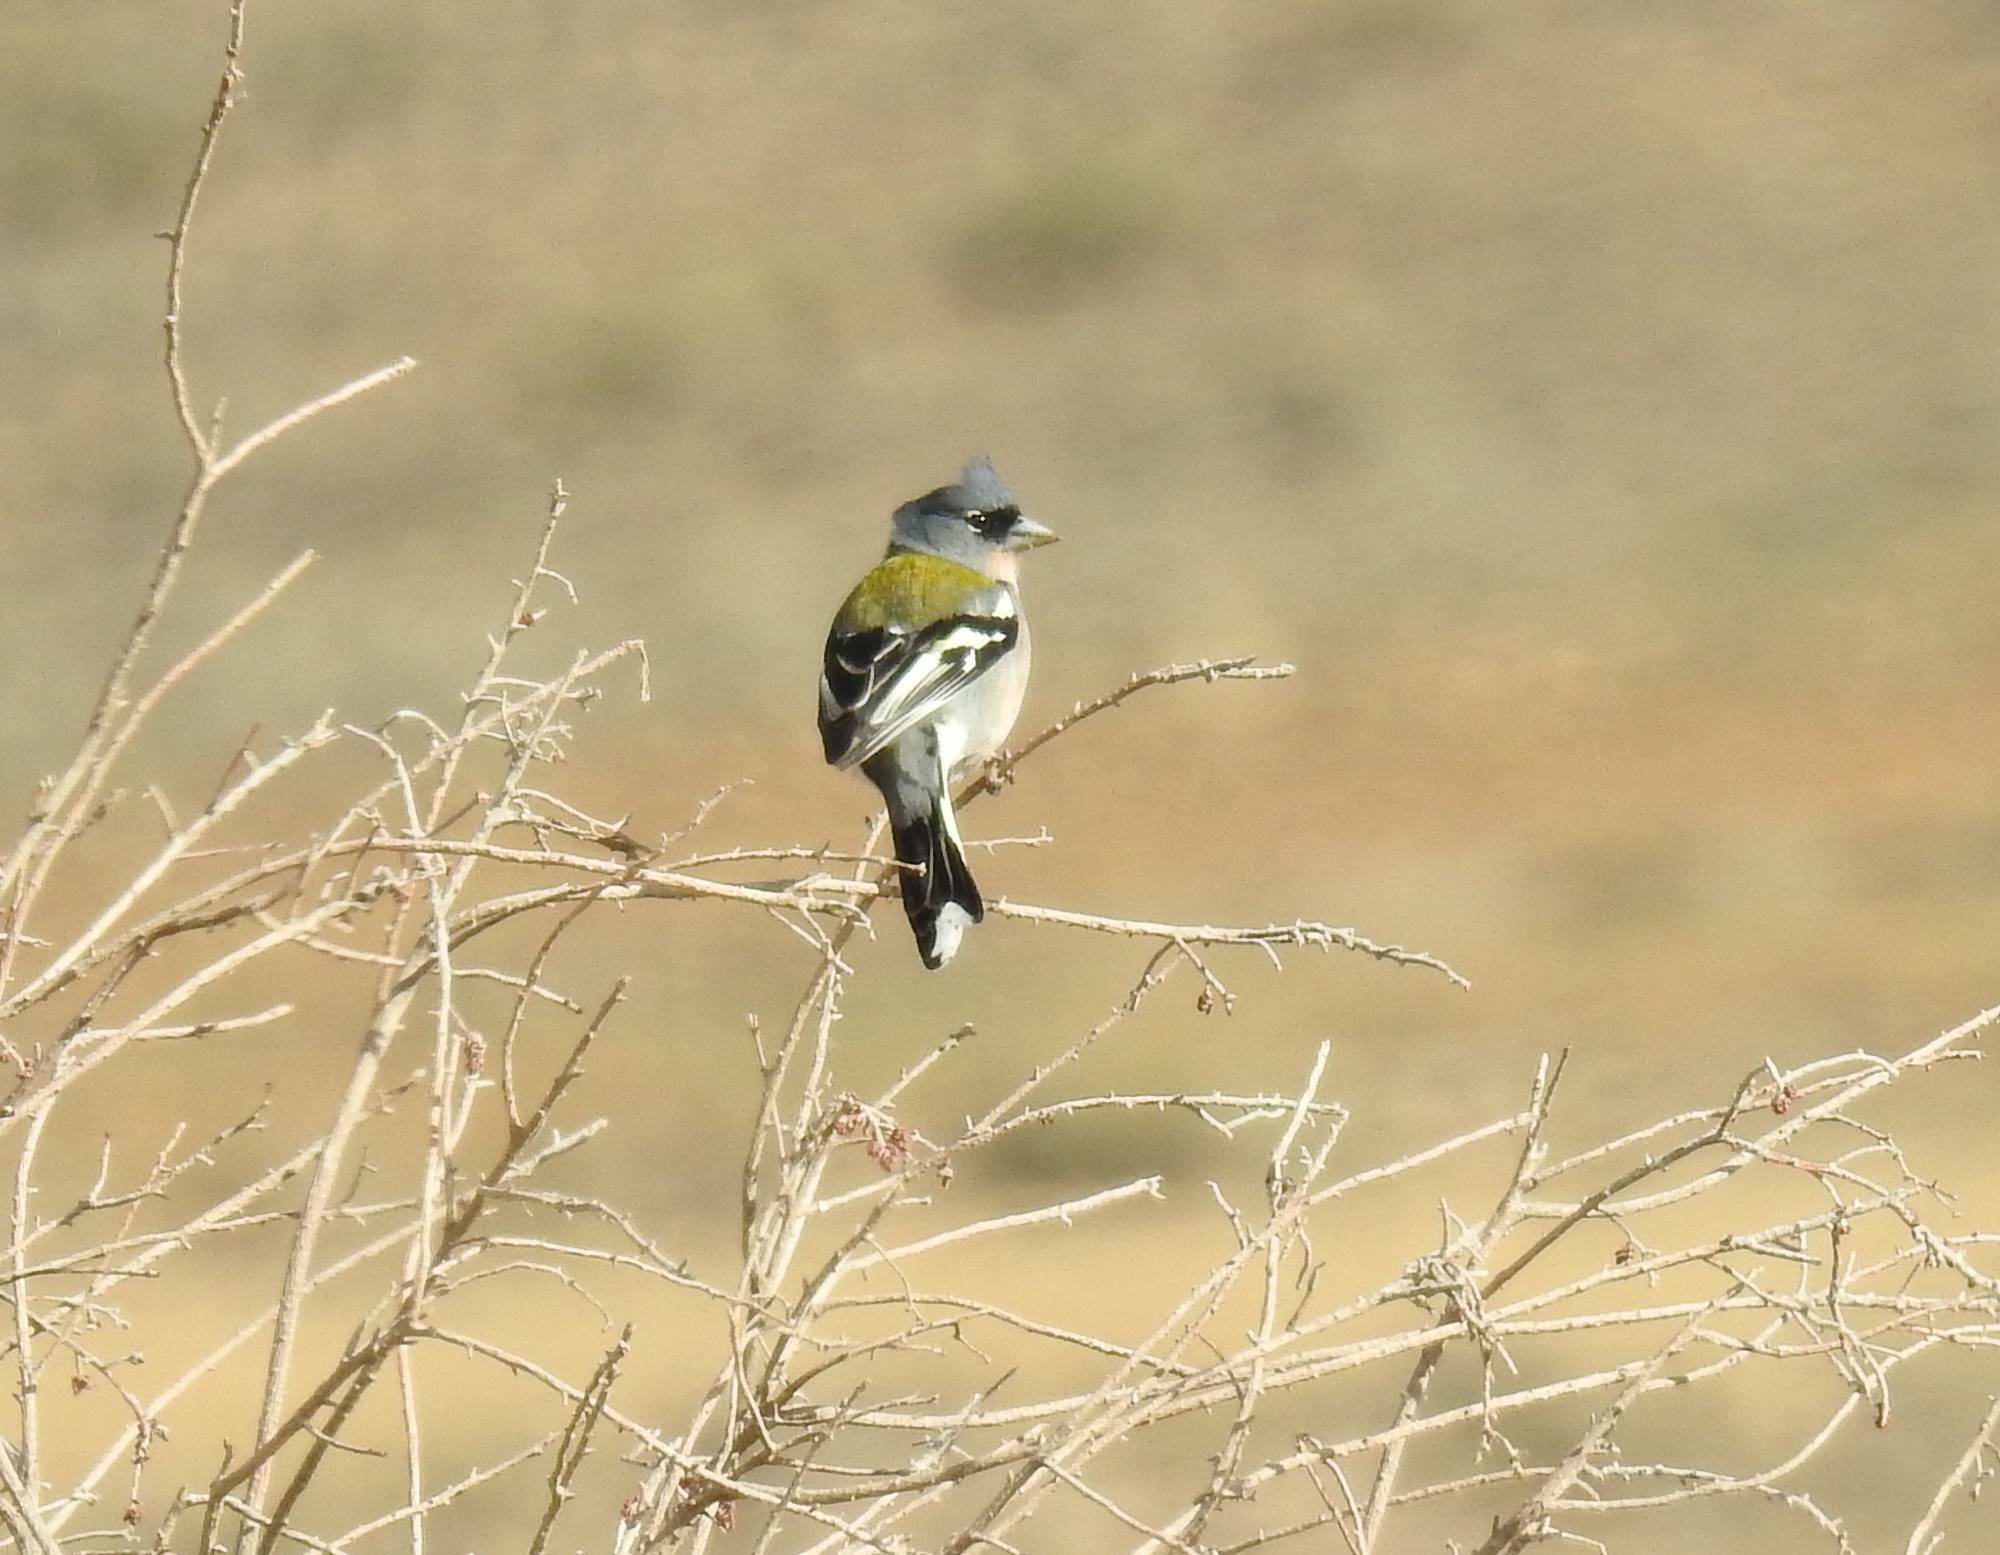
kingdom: Animalia
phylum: Chordata
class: Aves
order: Passeriformes
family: Fringillidae
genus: Fringilla
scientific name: Fringilla spodiogenys
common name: African chaffinch
